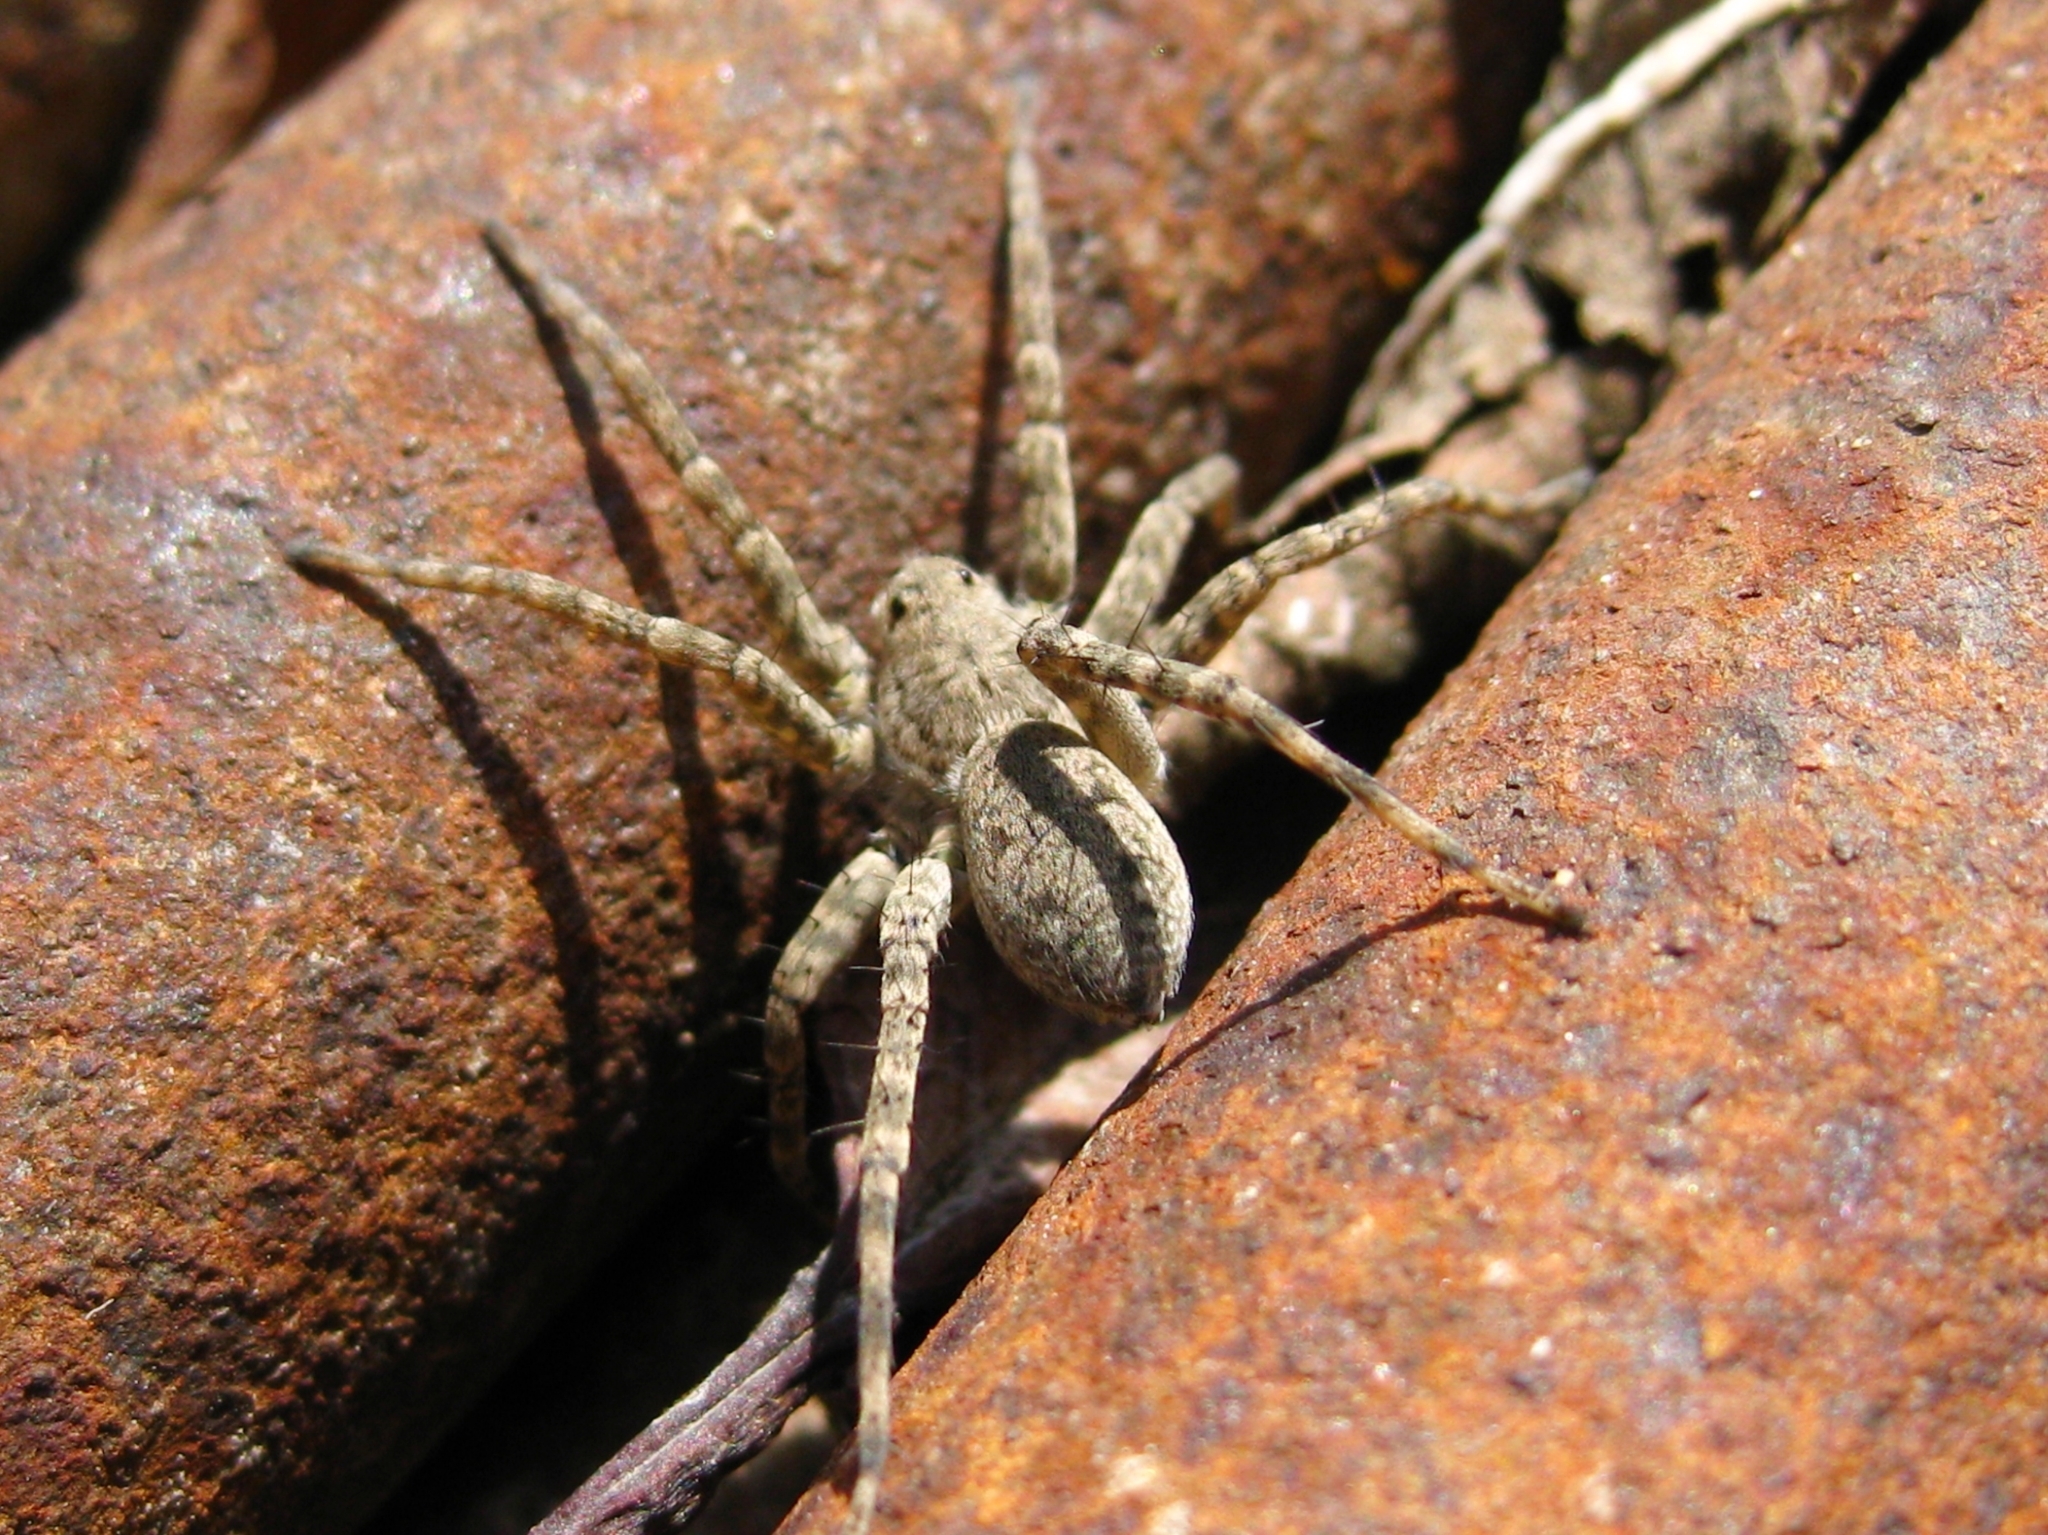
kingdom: Animalia
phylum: Arthropoda
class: Arachnida
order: Araneae
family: Lycosidae
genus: Pardosa
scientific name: Pardosa
